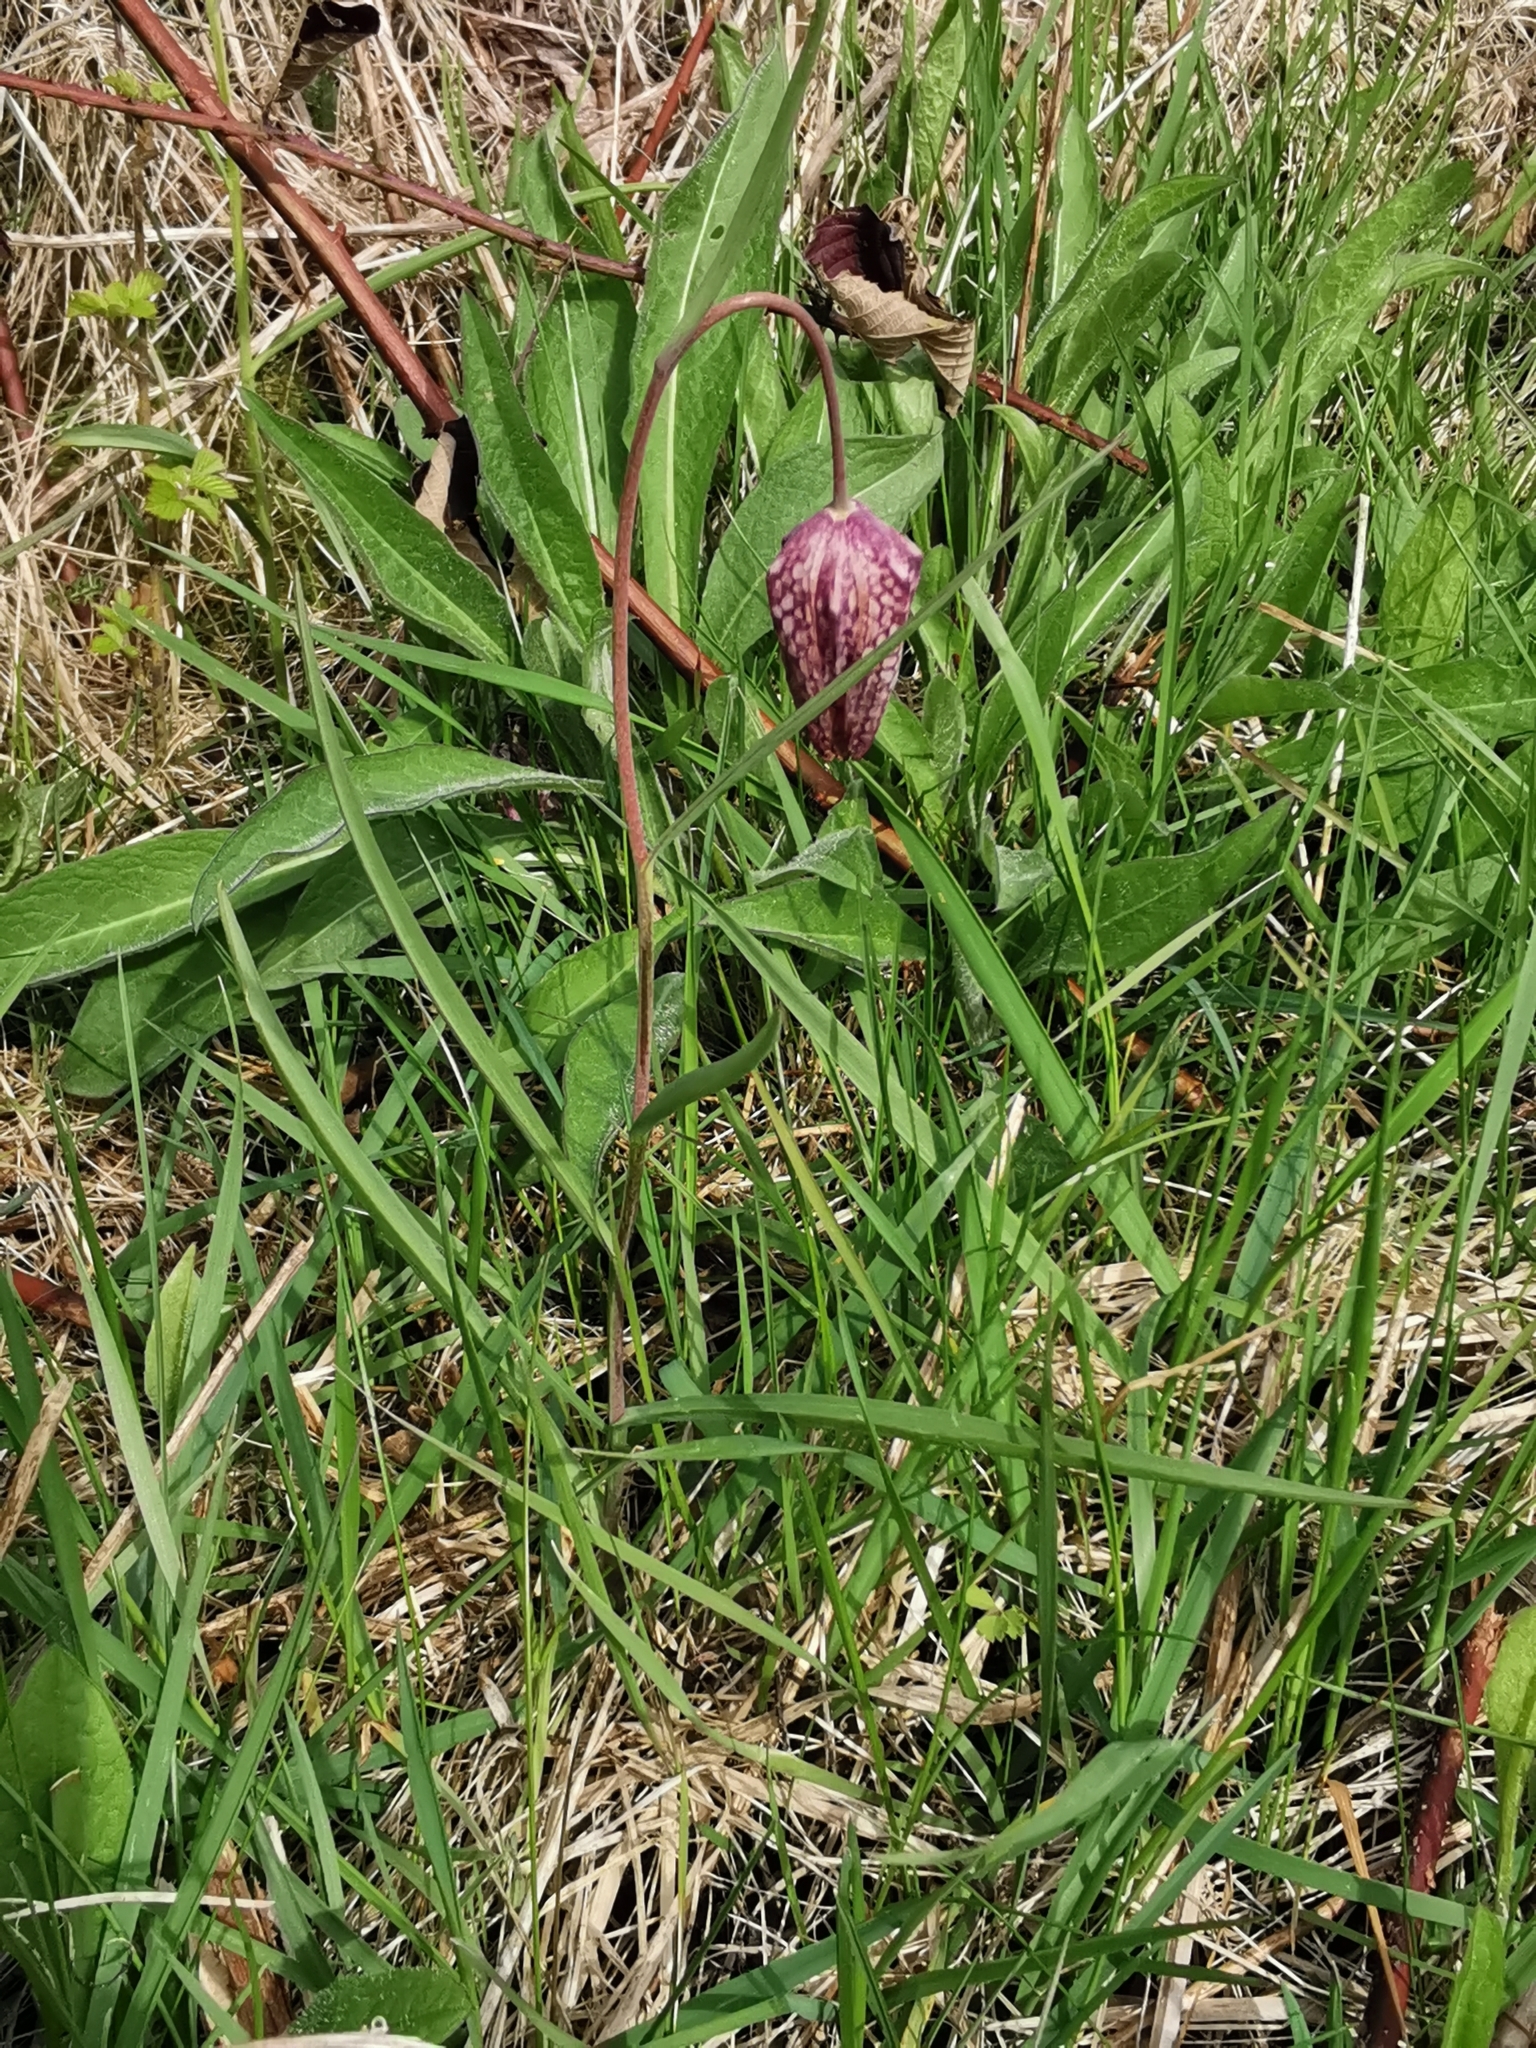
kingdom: Plantae
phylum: Tracheophyta
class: Liliopsida
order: Liliales
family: Liliaceae
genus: Fritillaria
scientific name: Fritillaria meleagris
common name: Fritillary
